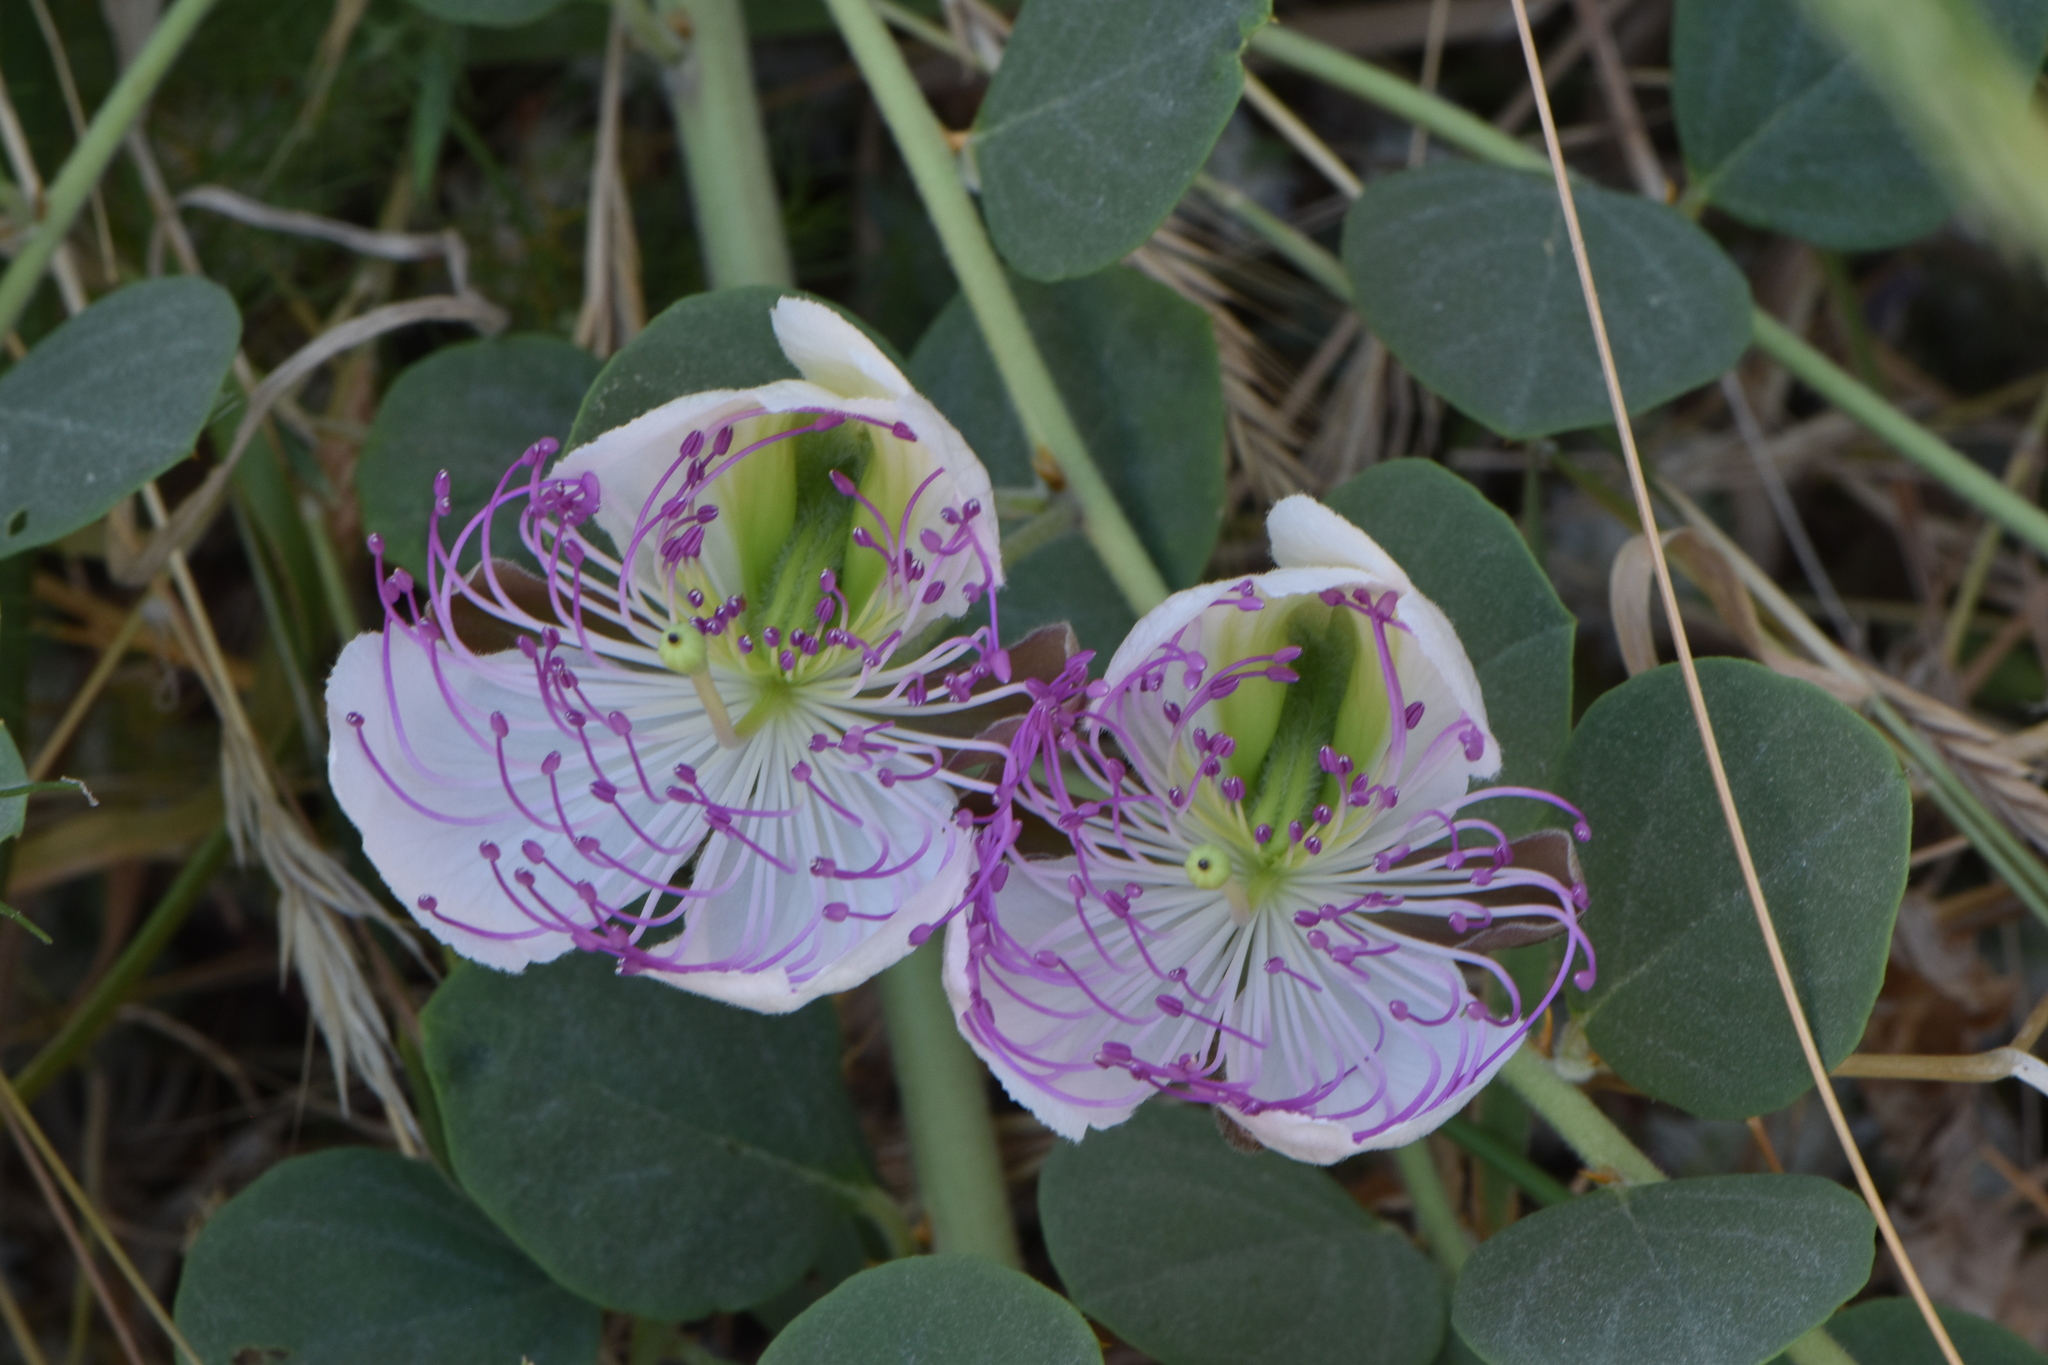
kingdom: Plantae
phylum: Tracheophyta
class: Magnoliopsida
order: Brassicales
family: Capparaceae
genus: Capparis
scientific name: Capparis spinosa
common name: Caper
